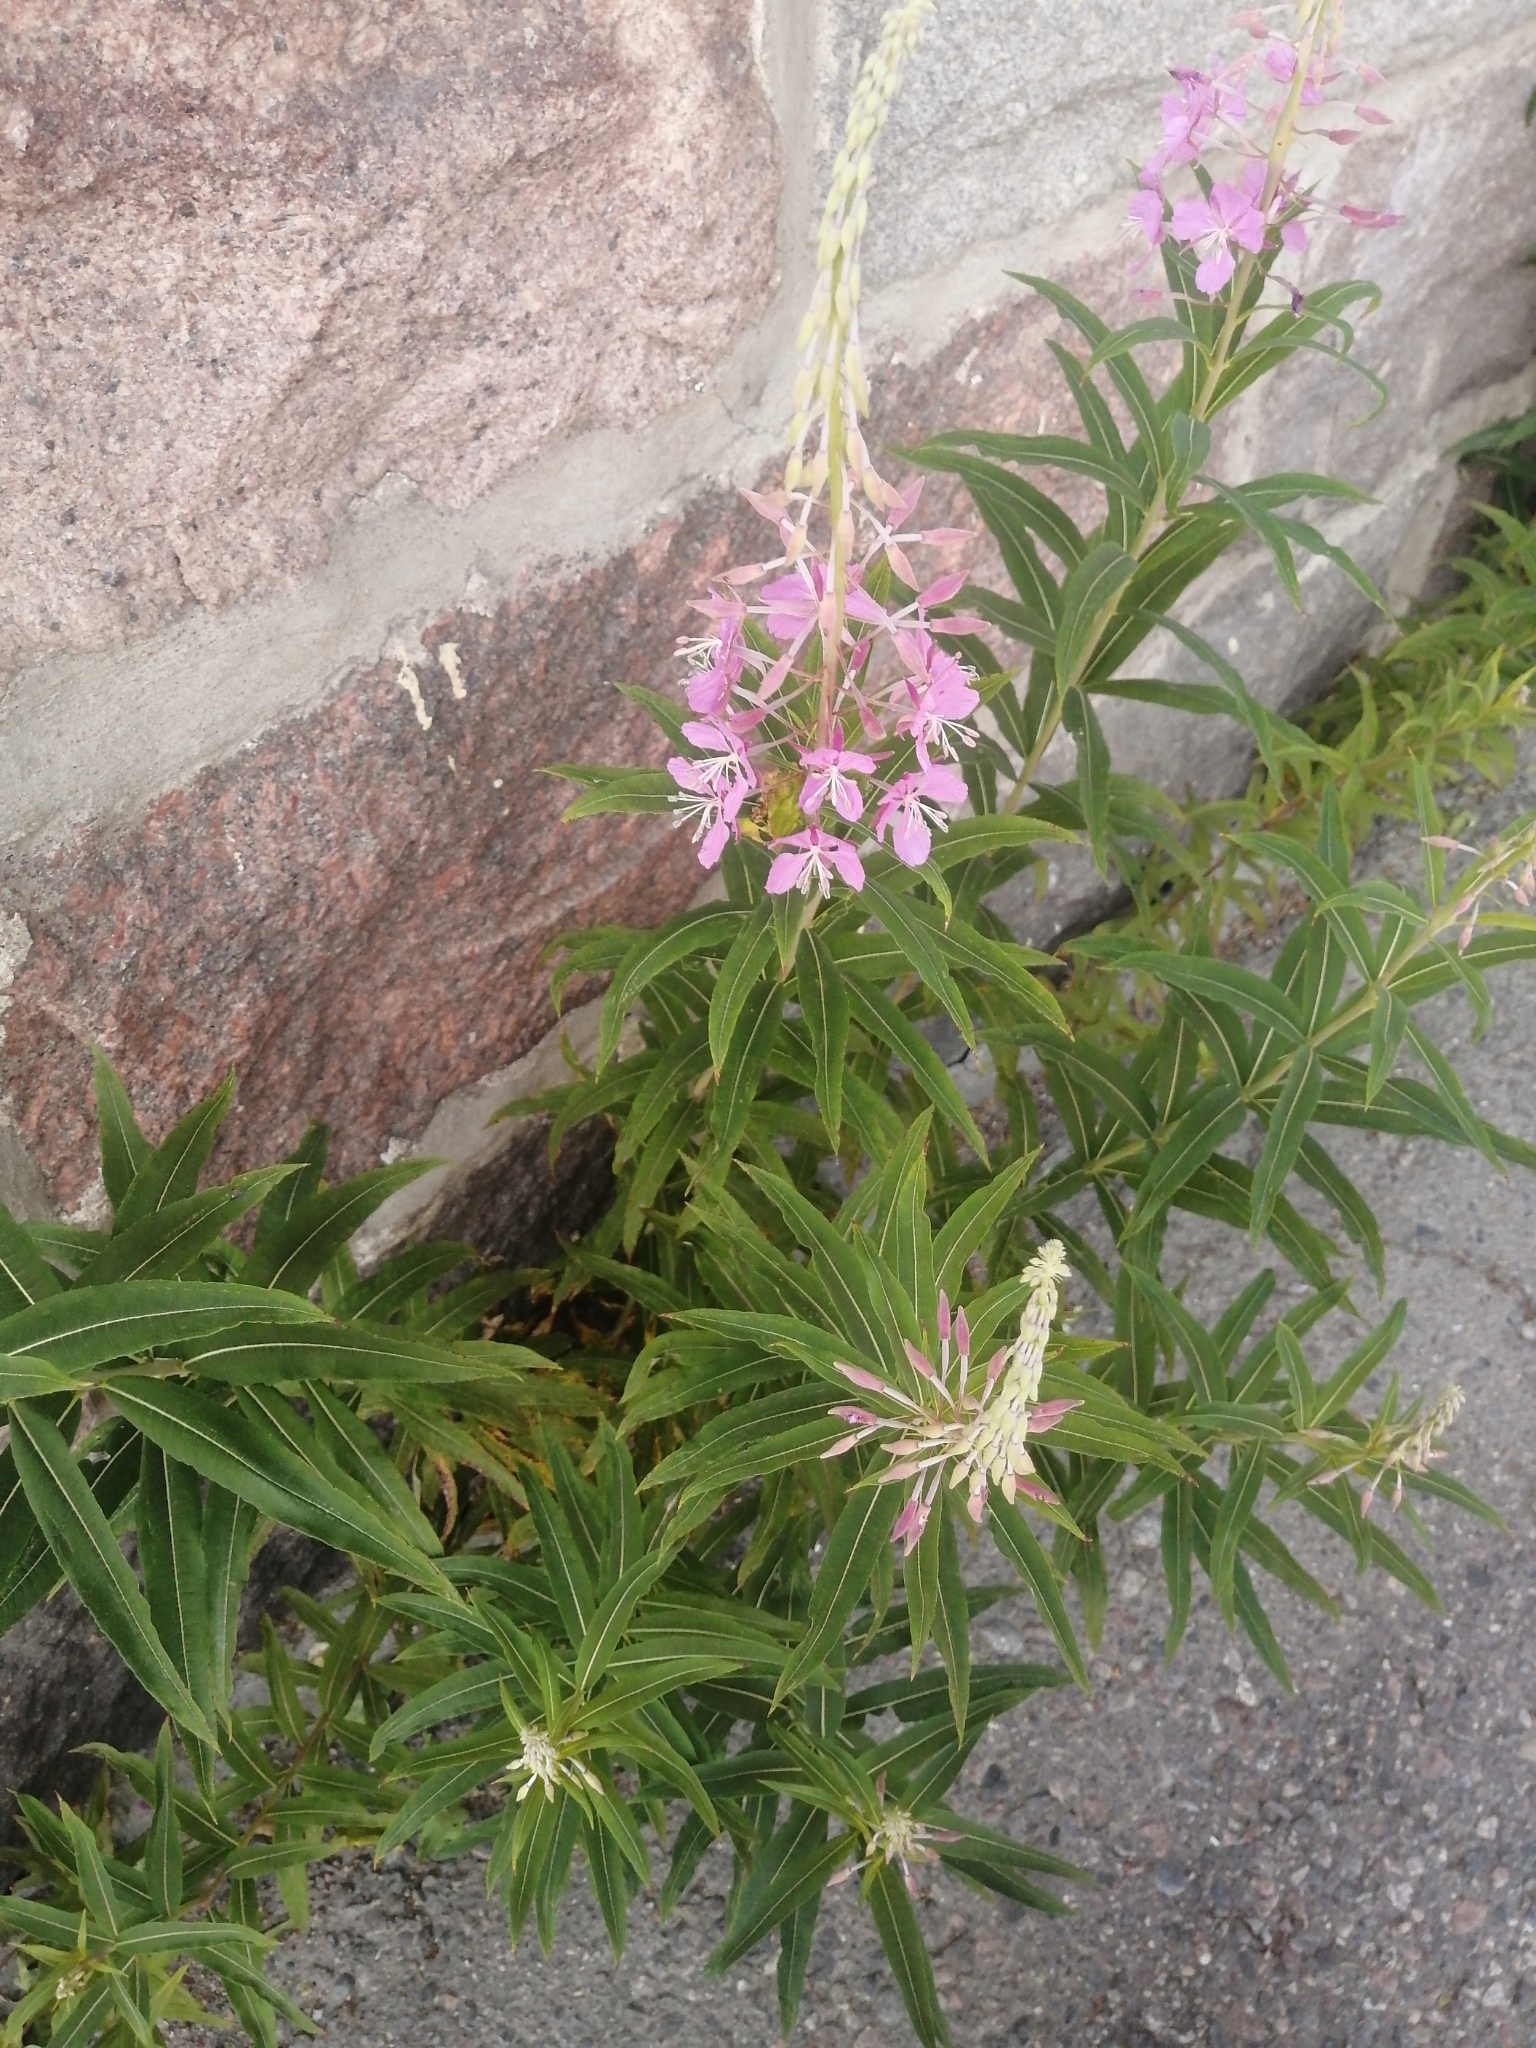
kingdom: Plantae
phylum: Tracheophyta
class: Magnoliopsida
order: Myrtales
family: Onagraceae
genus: Chamaenerion
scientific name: Chamaenerion angustifolium
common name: Fireweed
